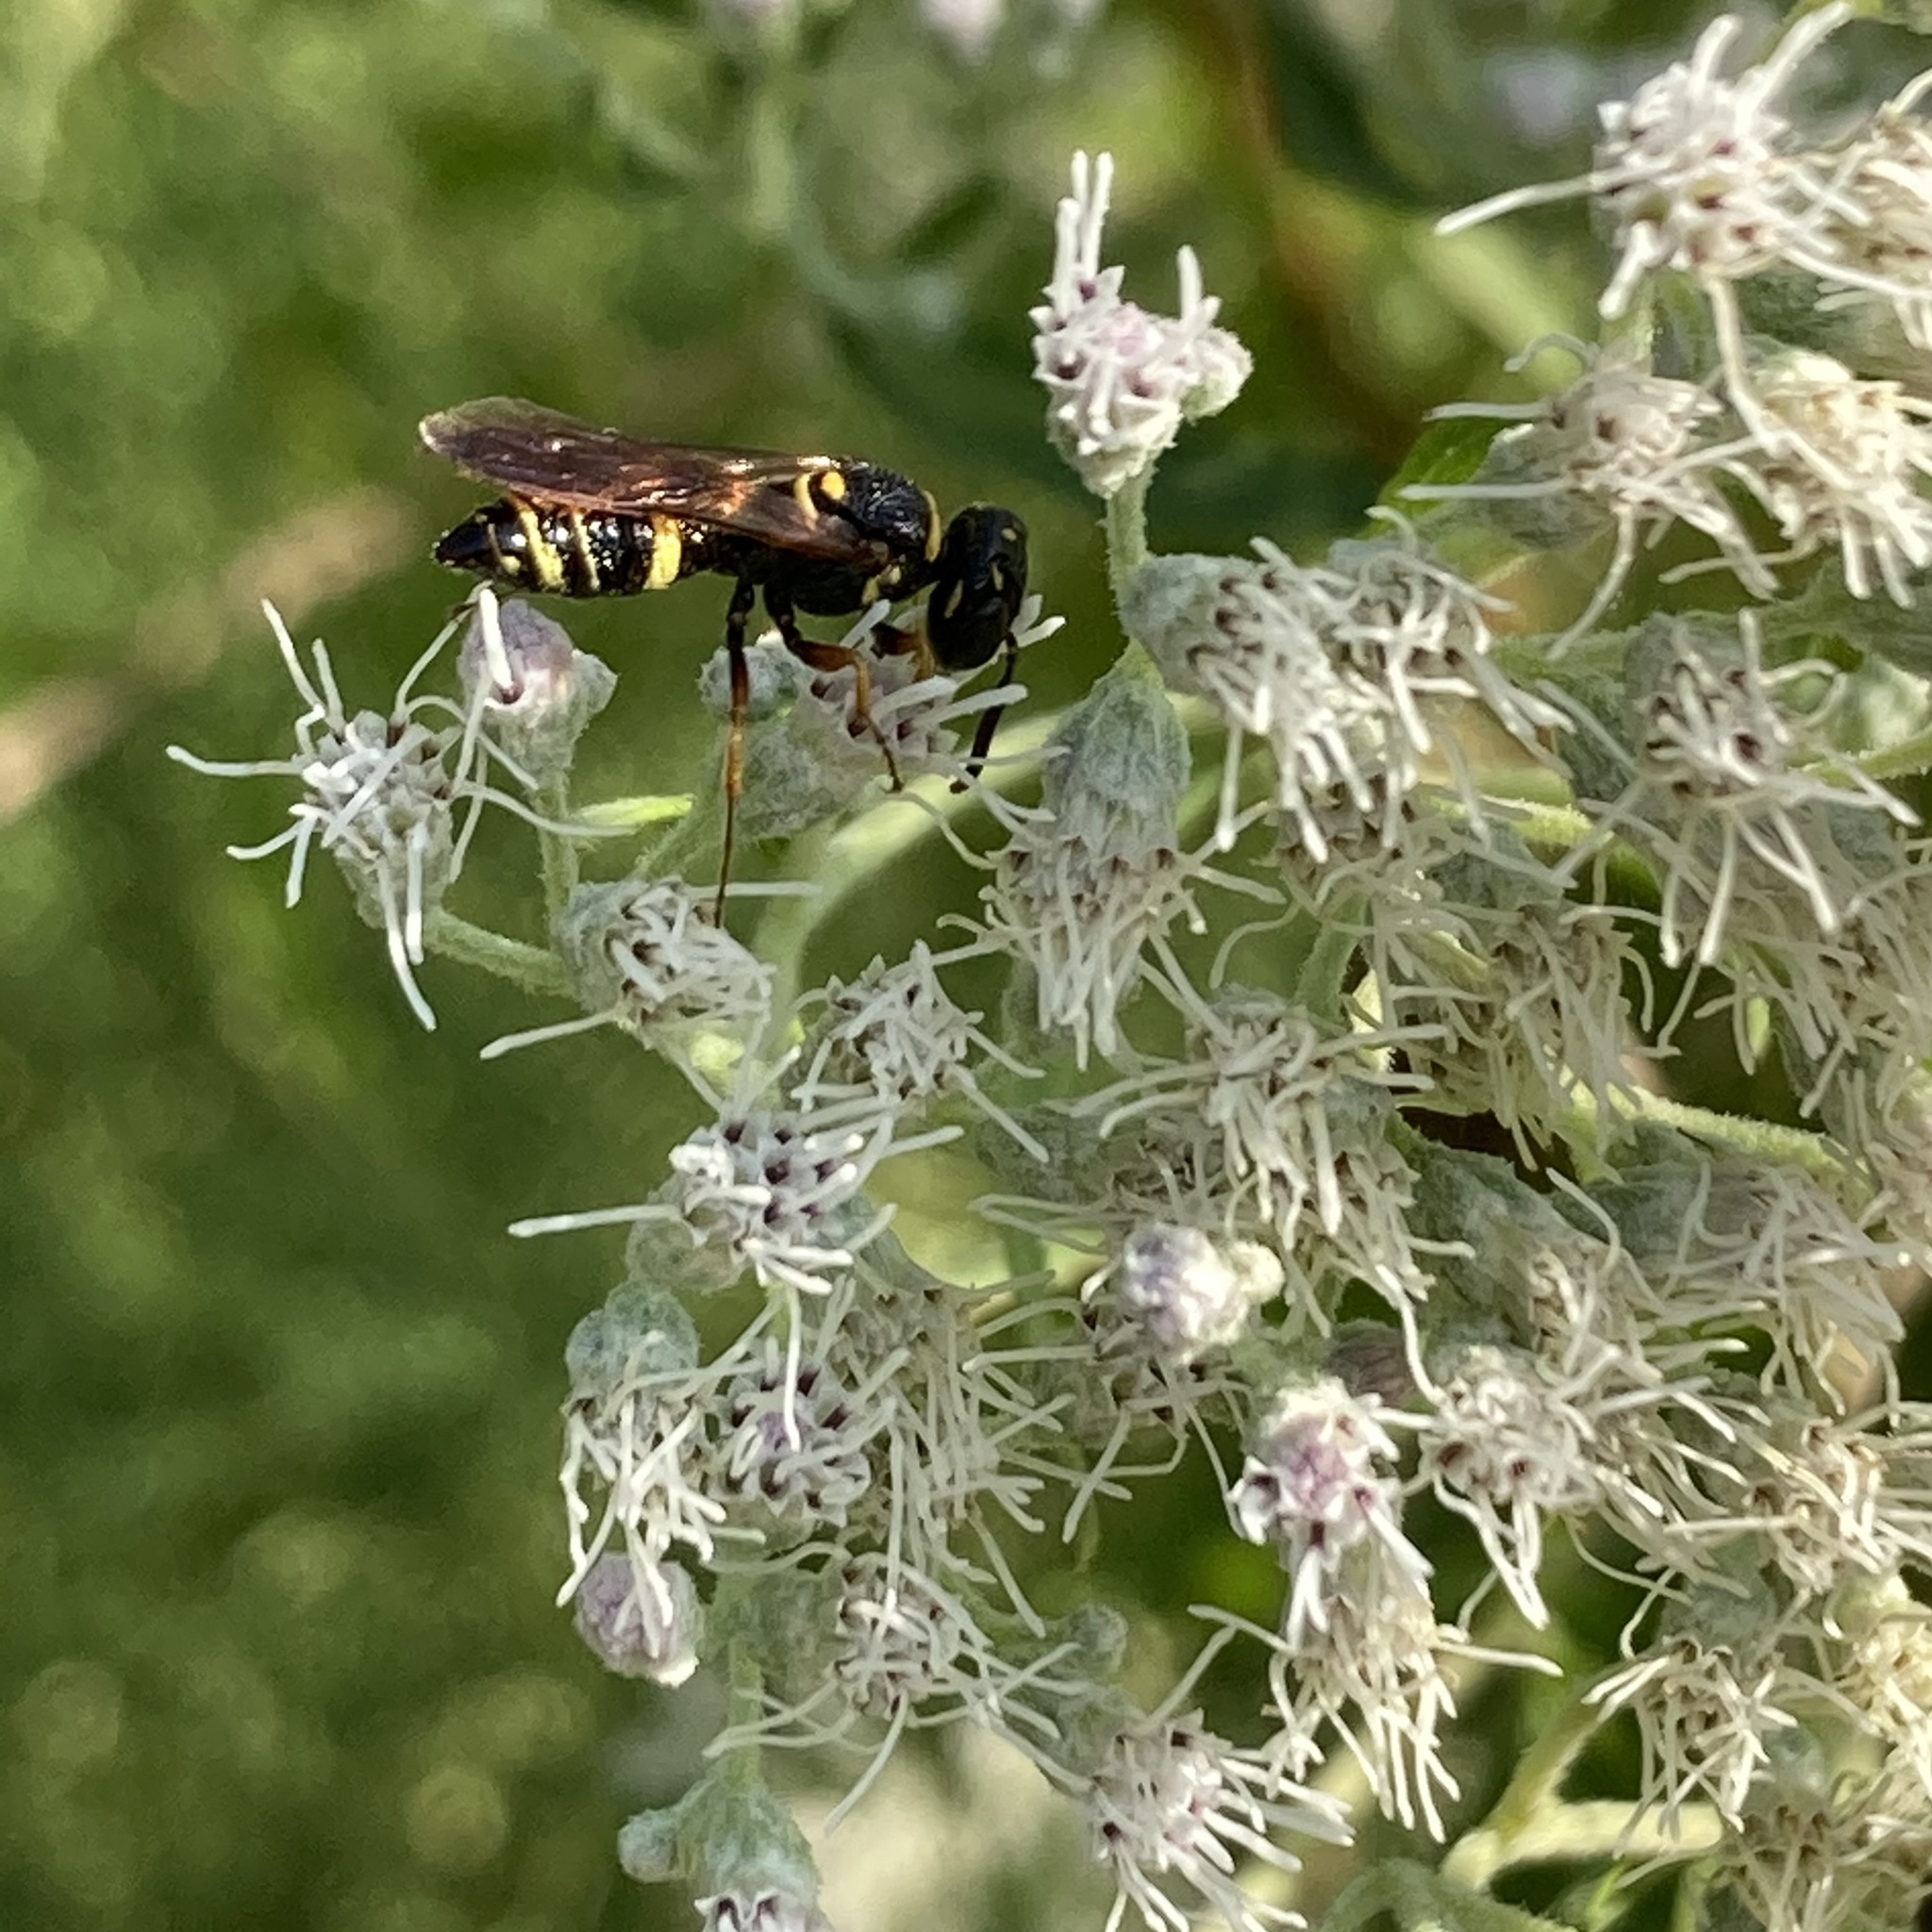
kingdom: Animalia
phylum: Arthropoda
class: Insecta
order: Hymenoptera
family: Crabronidae
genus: Philanthus
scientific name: Philanthus gibbosus
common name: Humped beewolf
